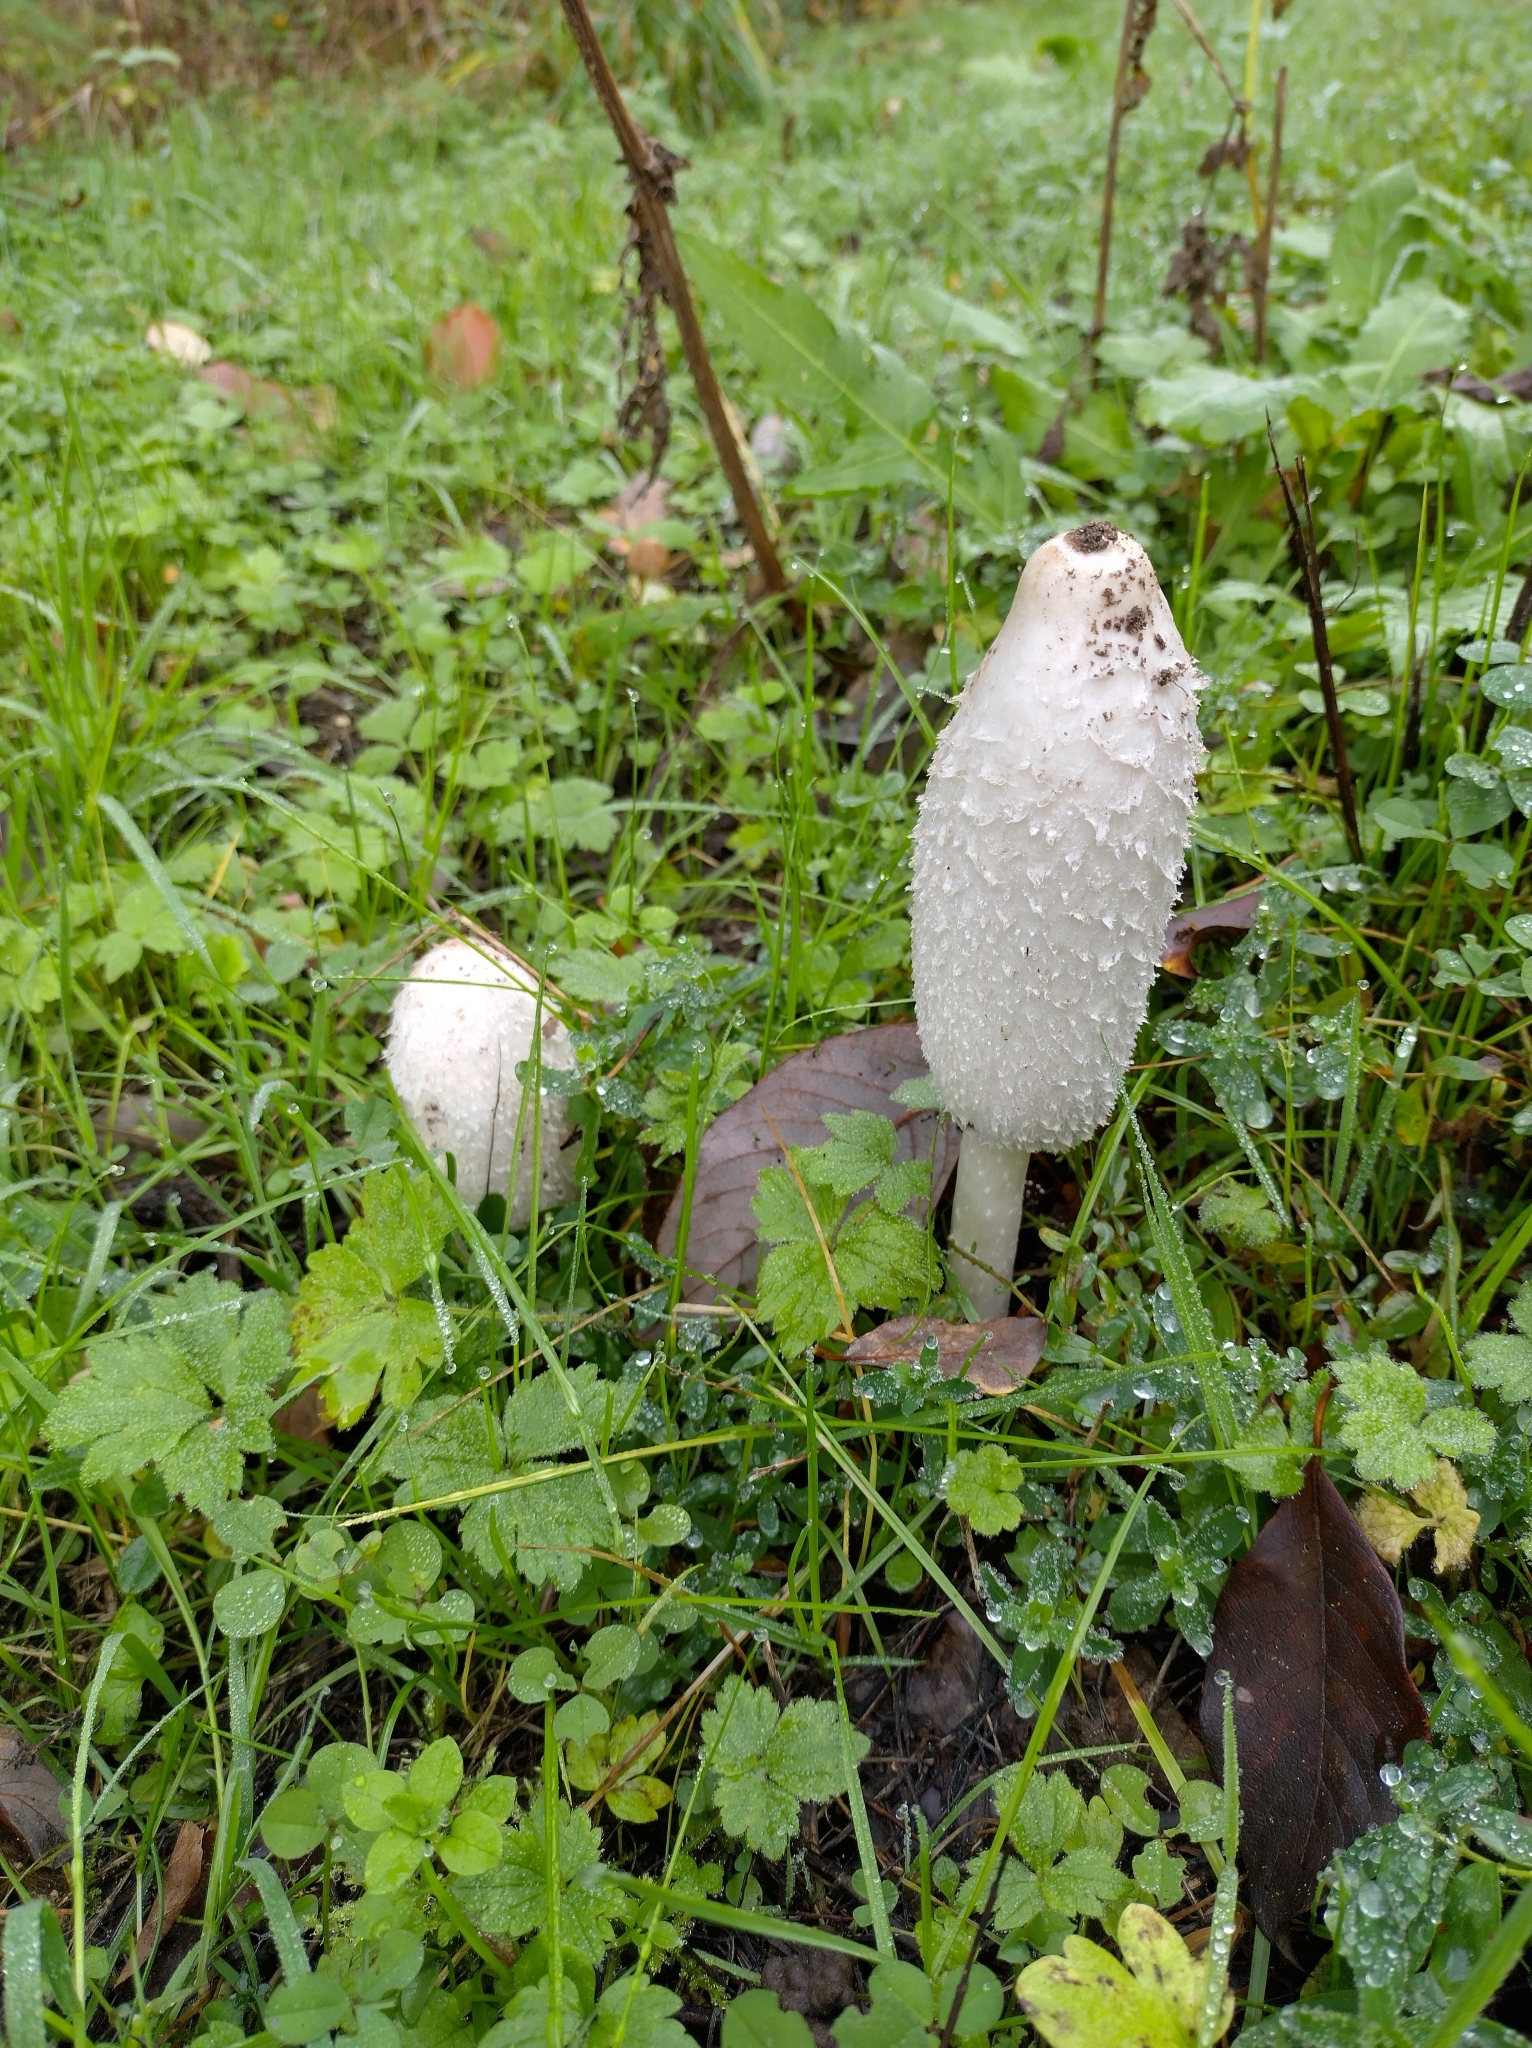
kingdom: Fungi
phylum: Basidiomycota
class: Agaricomycetes
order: Agaricales
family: Agaricaceae
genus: Coprinus
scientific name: Coprinus comatus
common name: Lawyer's wig
